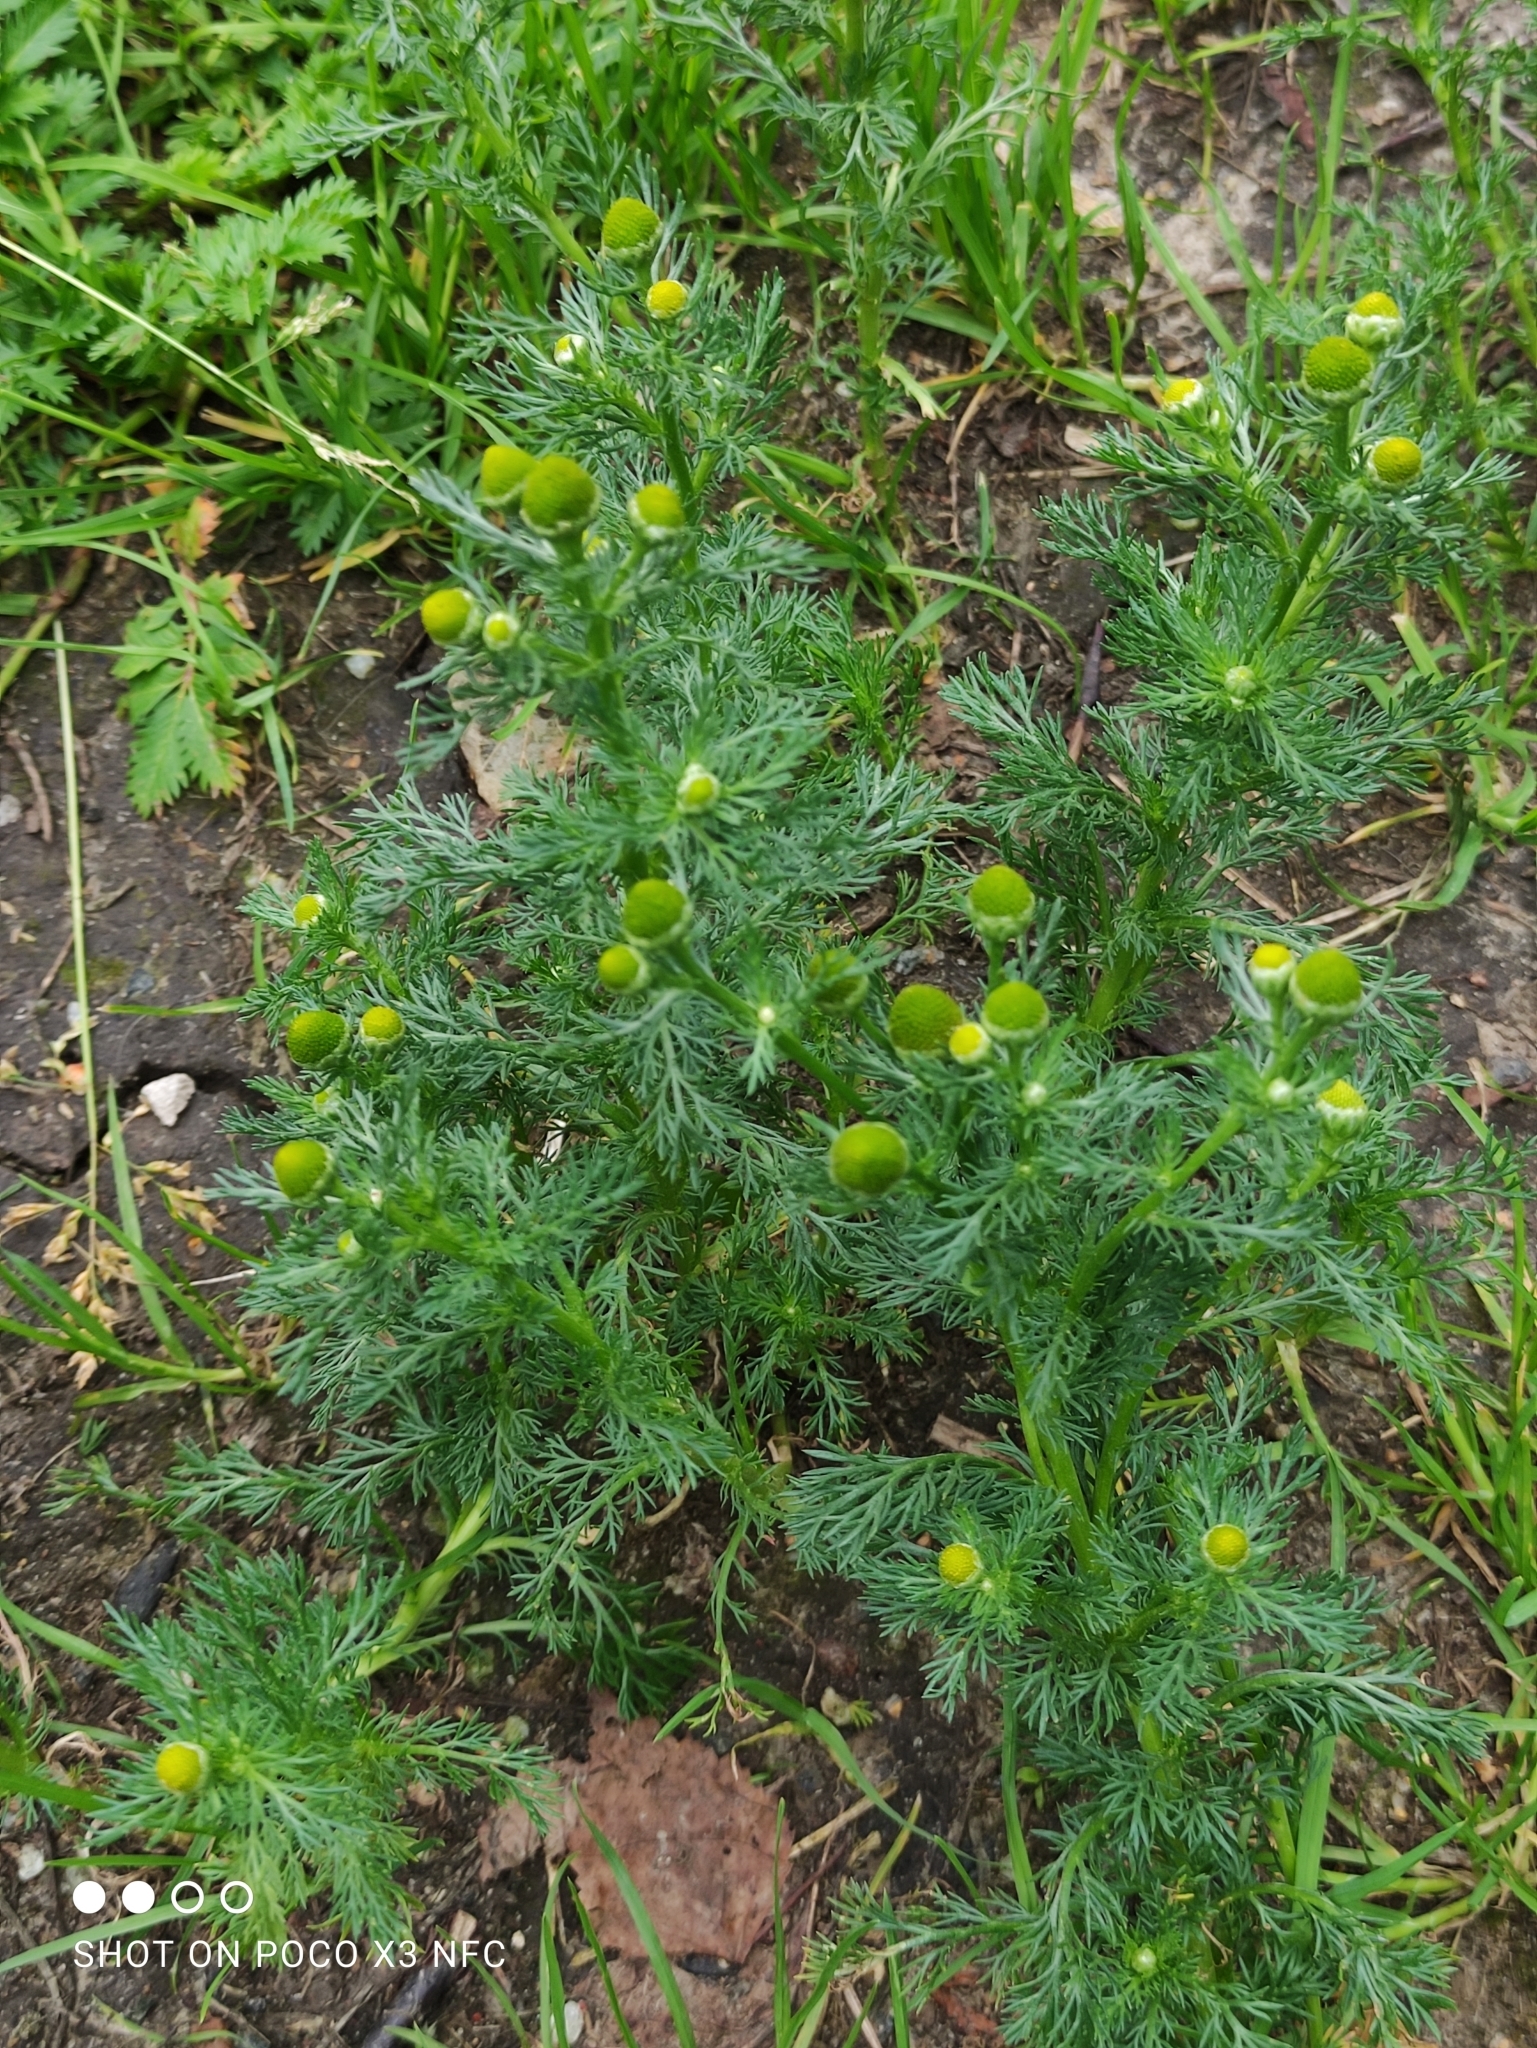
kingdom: Plantae
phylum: Tracheophyta
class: Magnoliopsida
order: Asterales
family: Asteraceae
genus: Matricaria
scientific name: Matricaria discoidea
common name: Disc mayweed
